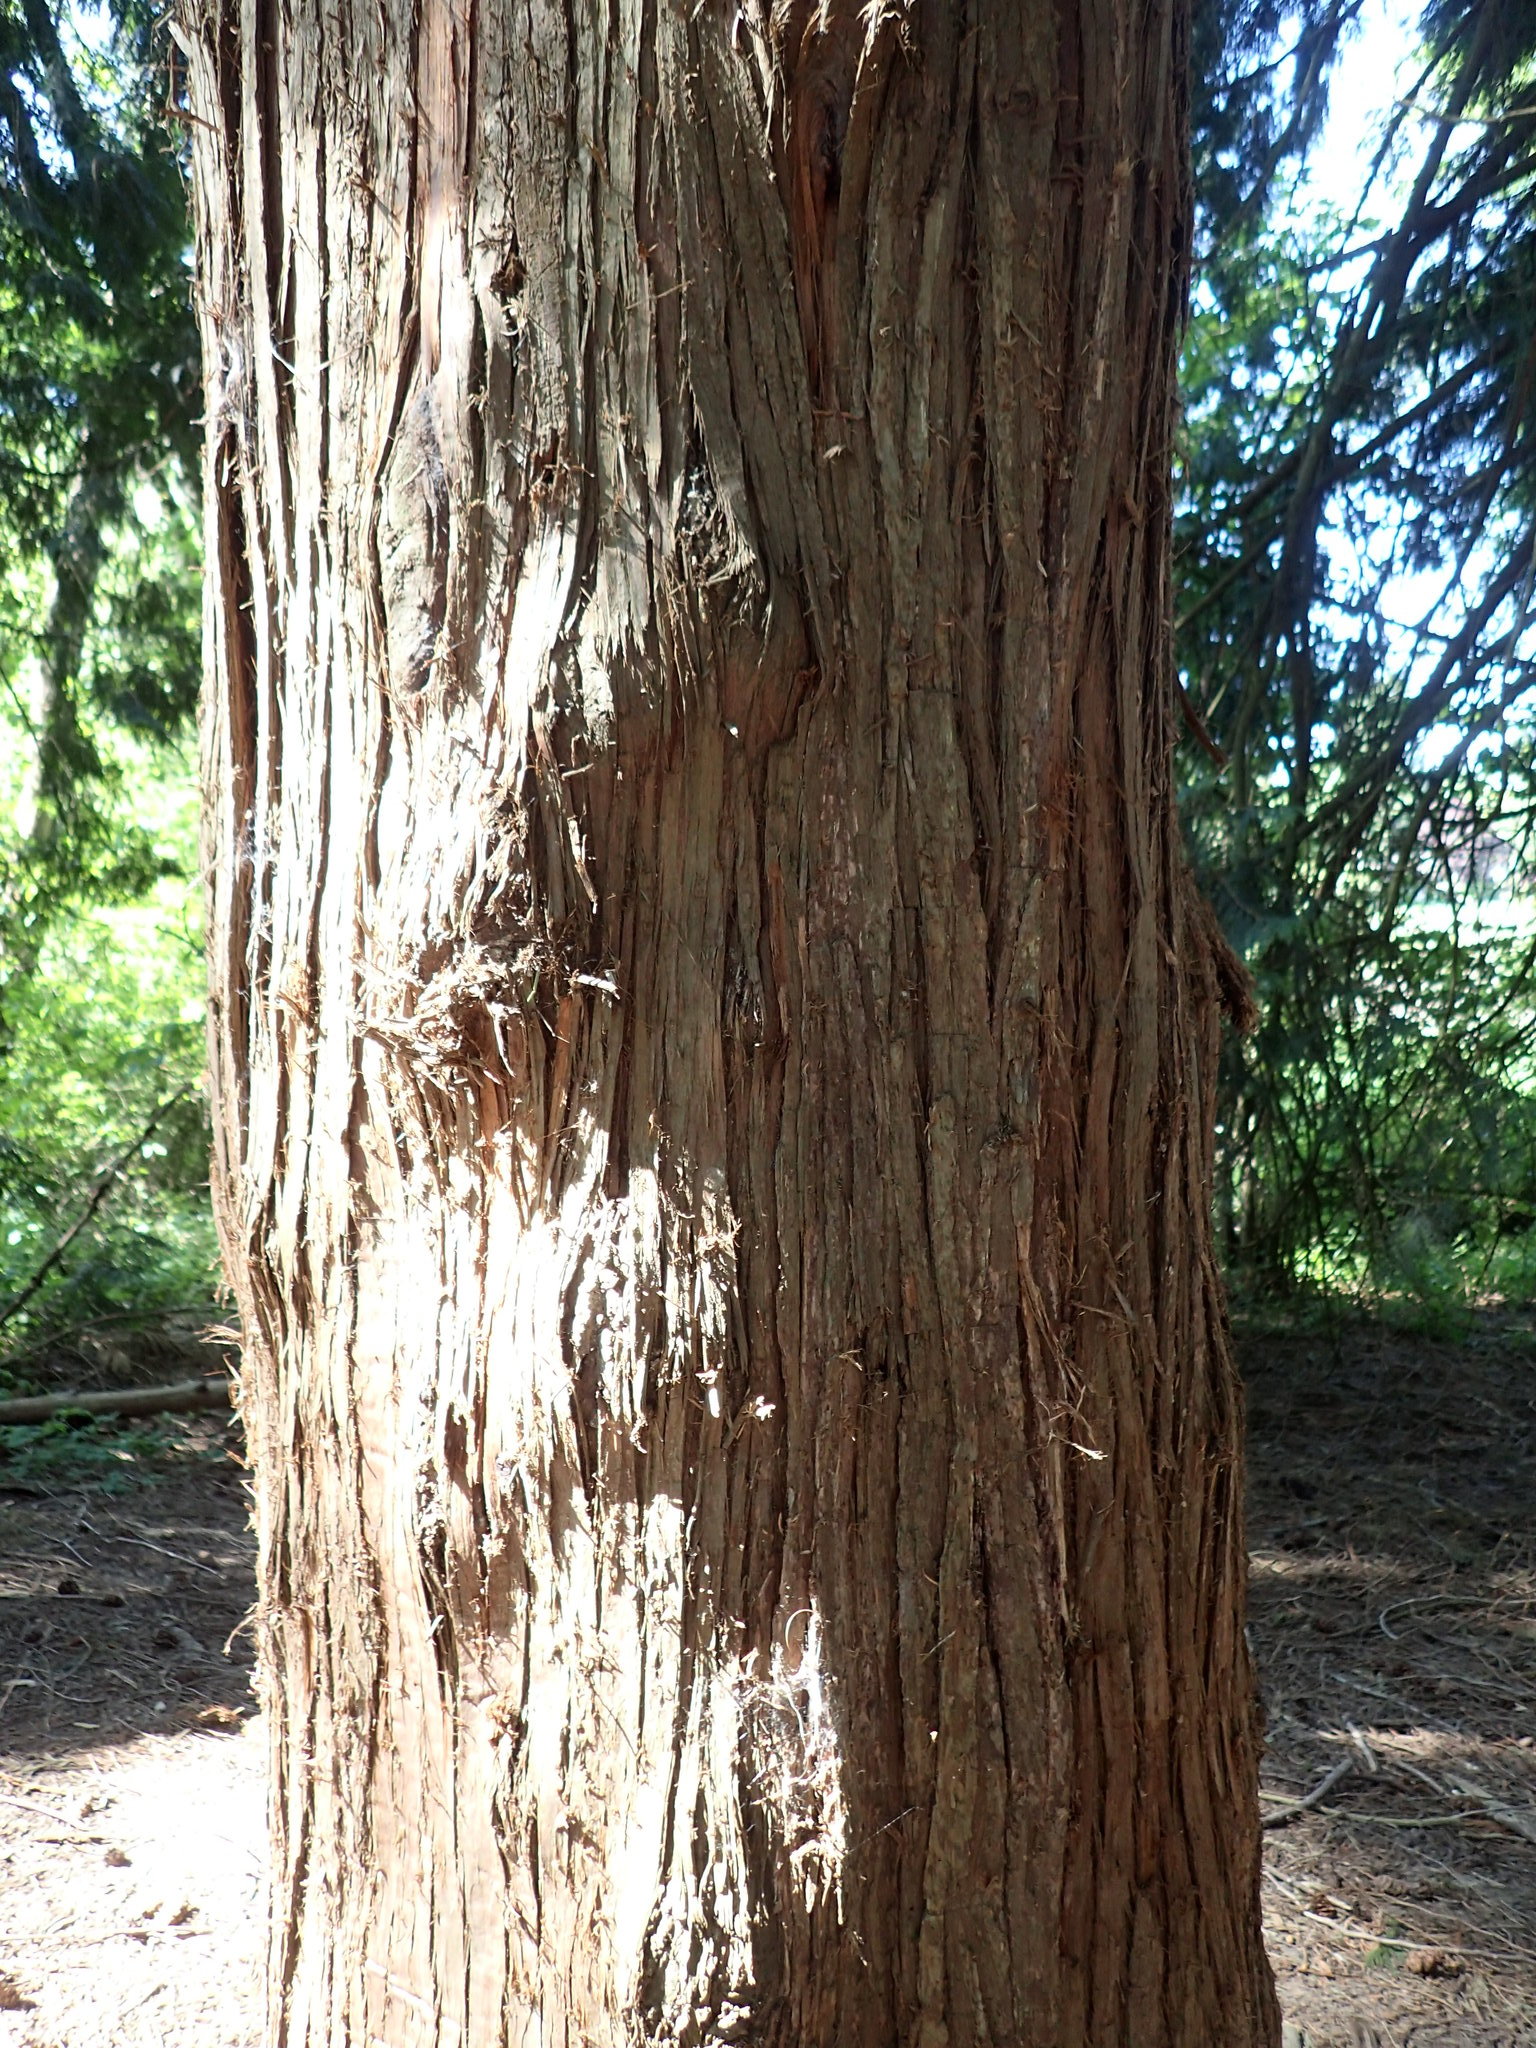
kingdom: Plantae
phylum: Tracheophyta
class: Pinopsida
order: Pinales
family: Cupressaceae
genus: Thuja
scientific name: Thuja plicata
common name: Western red-cedar
